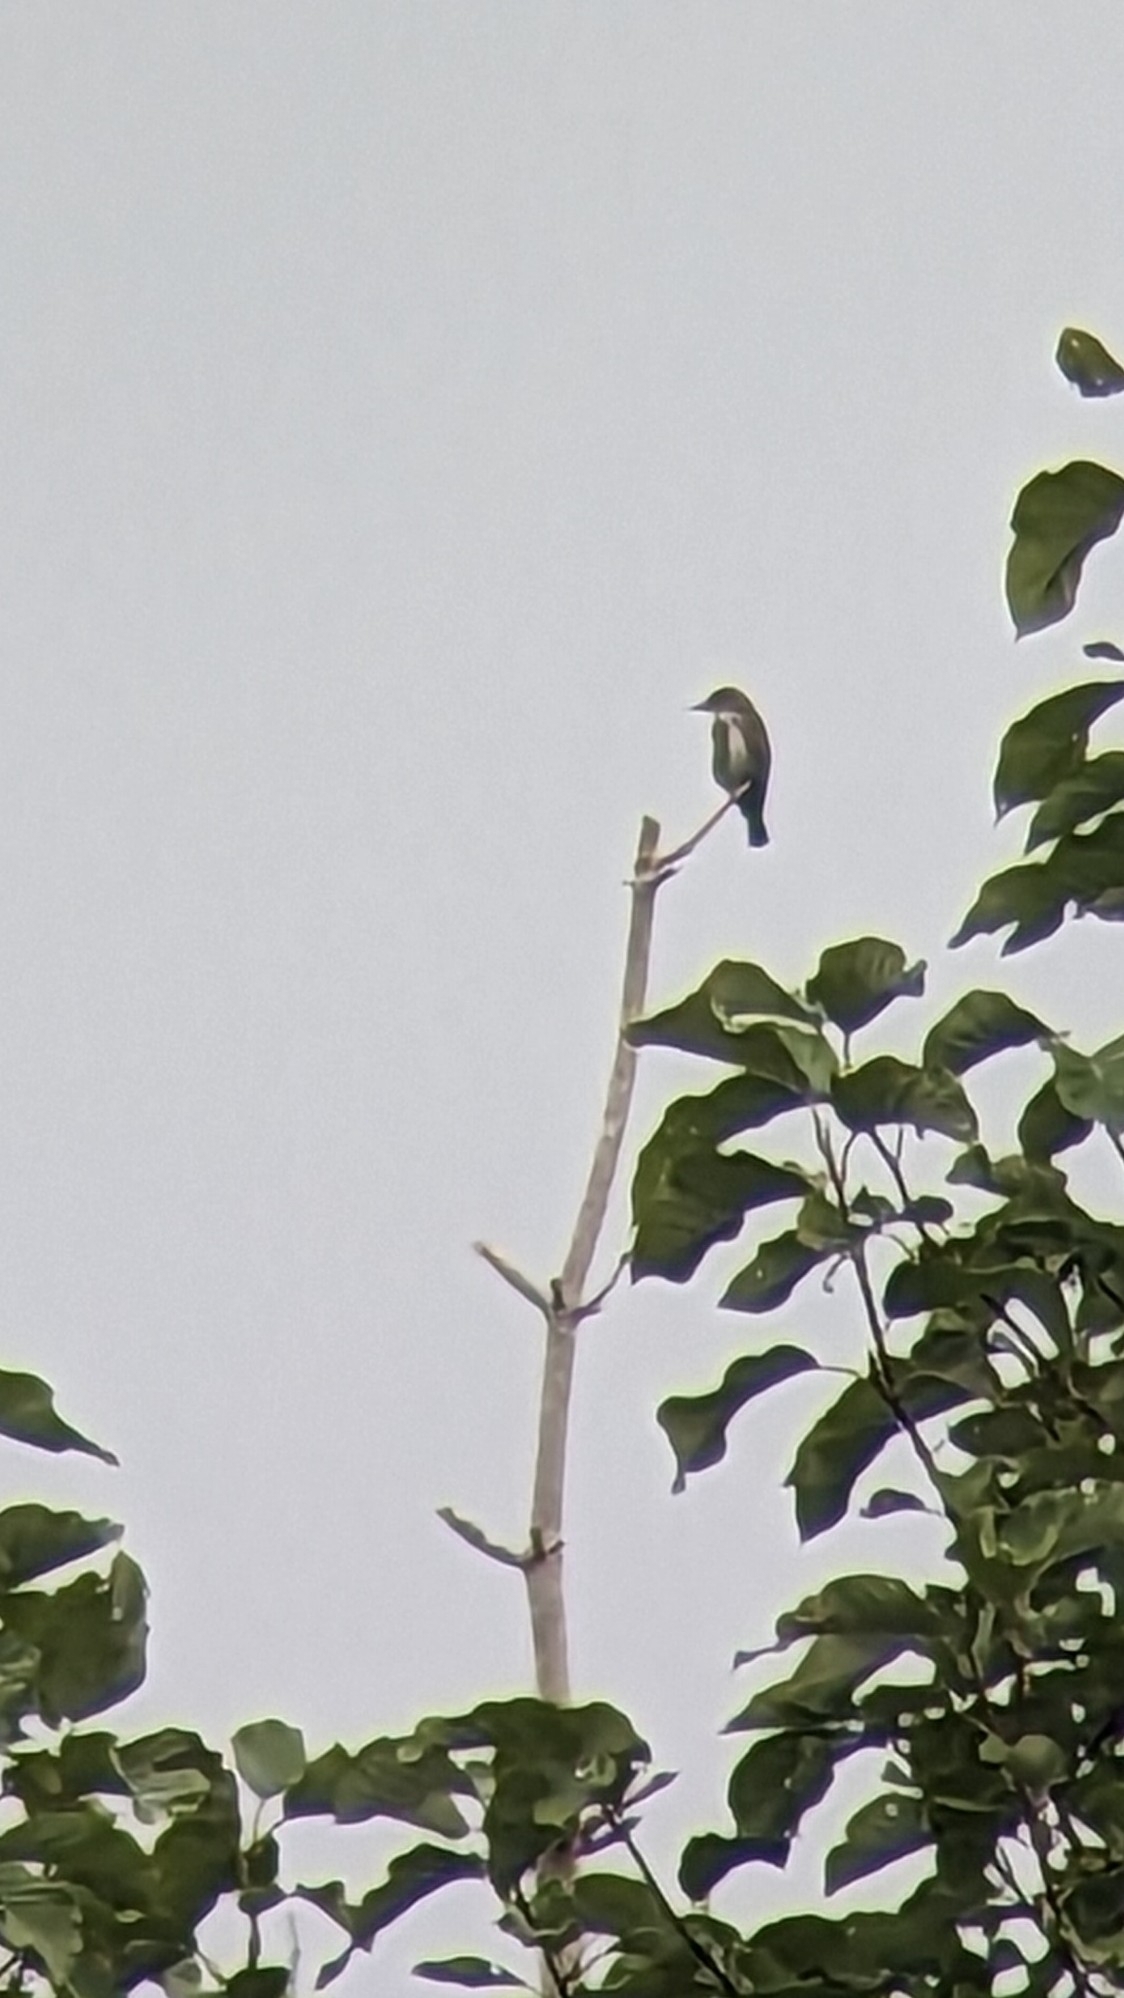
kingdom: Animalia
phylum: Chordata
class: Aves
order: Passeriformes
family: Tyrannidae
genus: Contopus
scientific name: Contopus cooperi
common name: Olive-sided flycatcher
